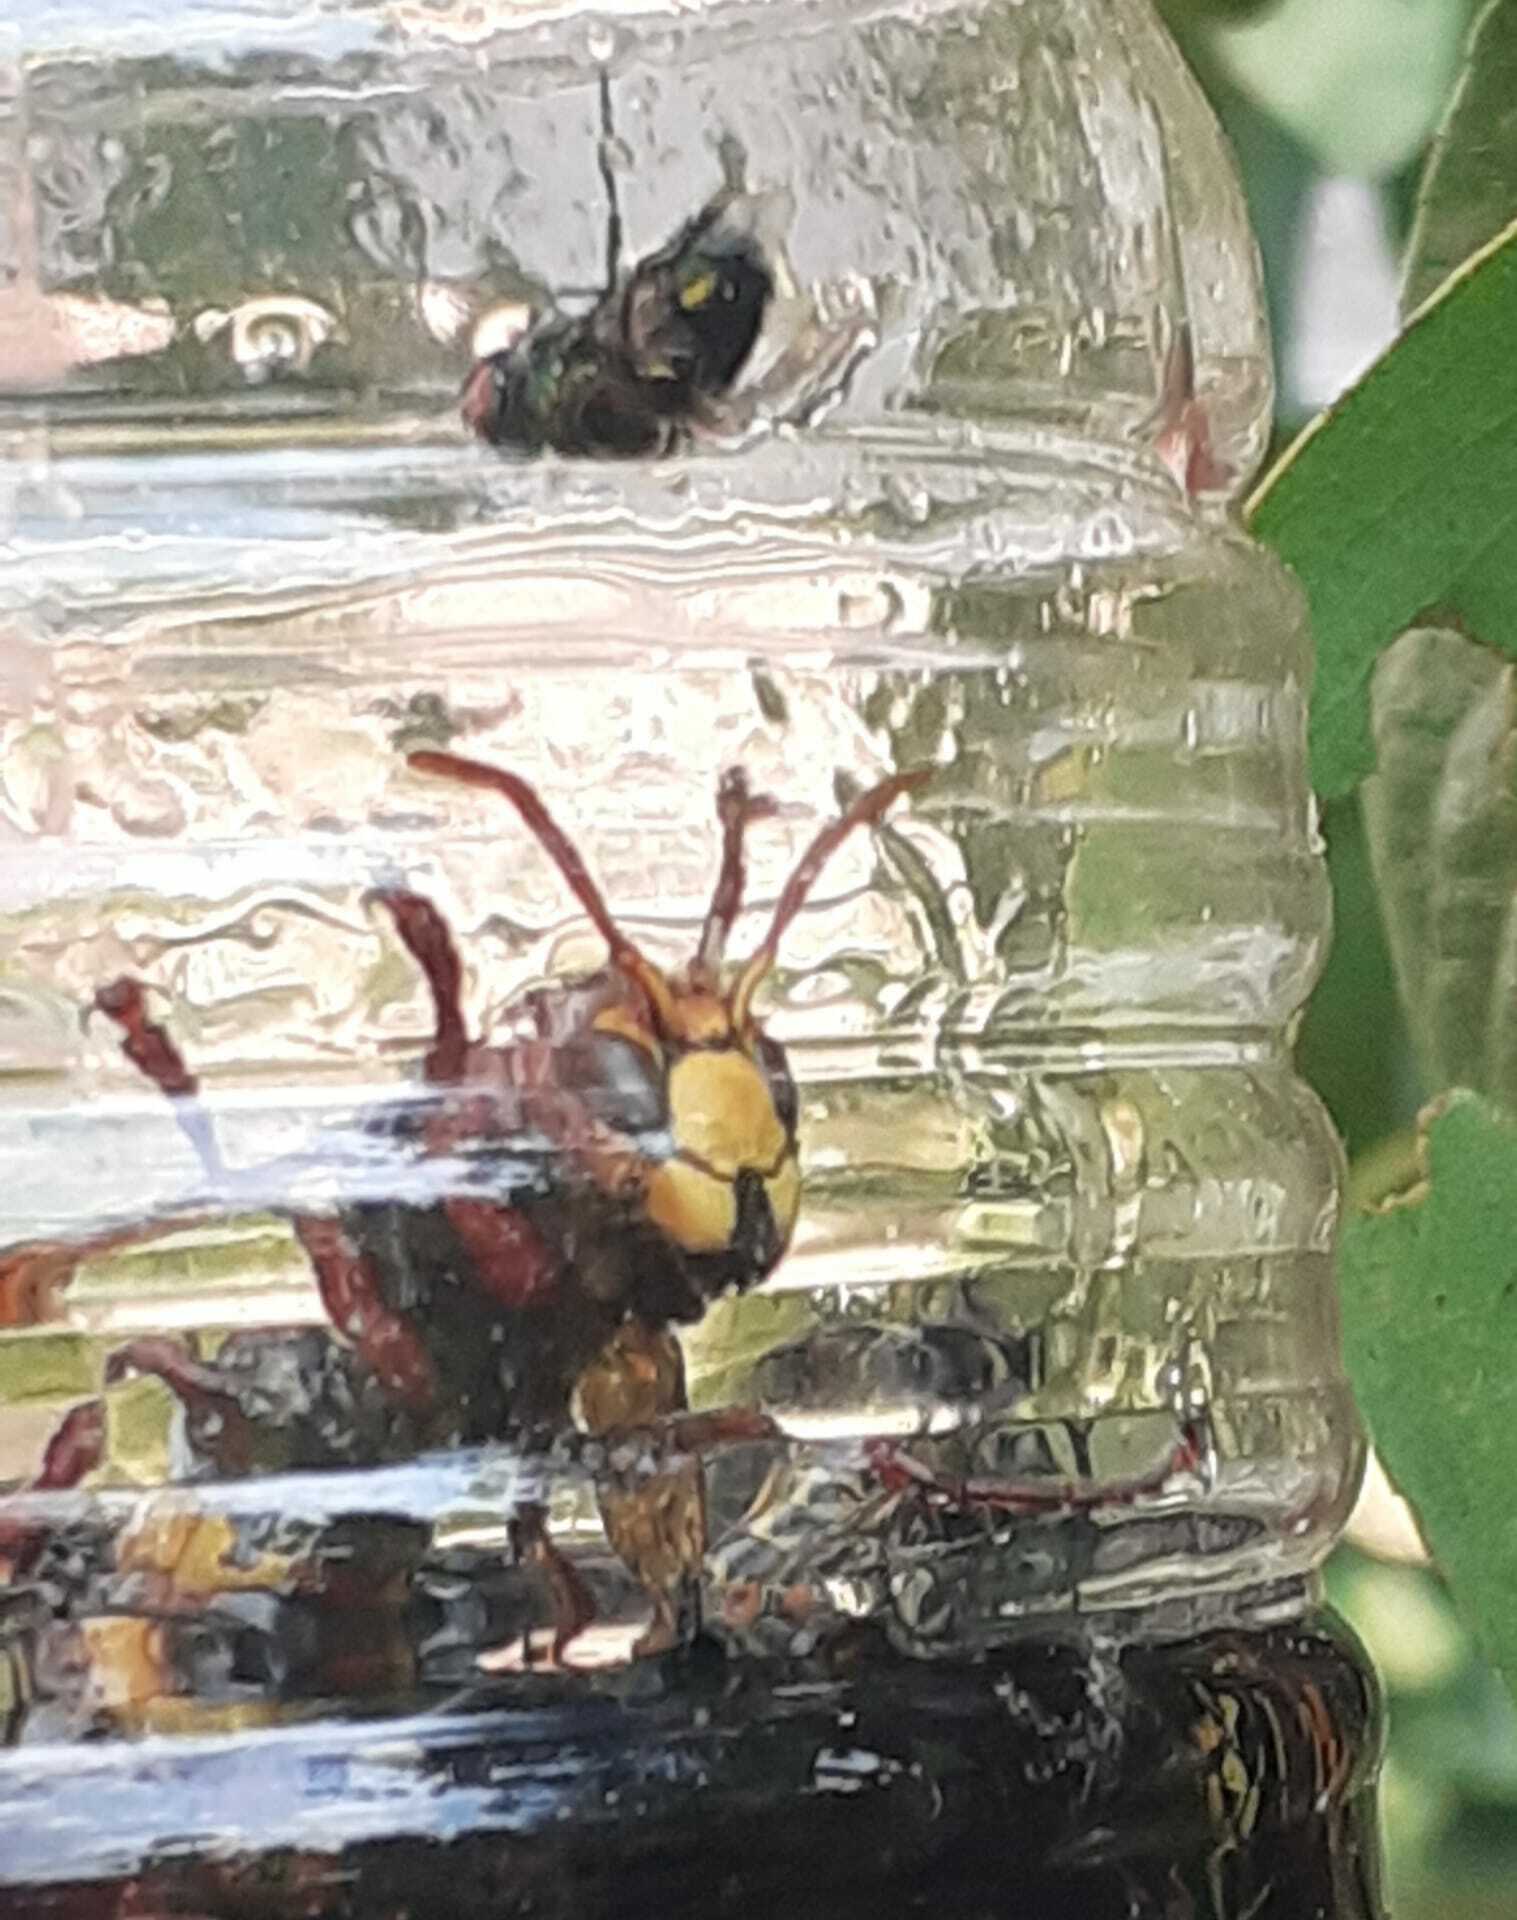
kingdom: Animalia
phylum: Arthropoda
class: Insecta
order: Hymenoptera
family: Vespidae
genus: Vespa
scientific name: Vespa crabro
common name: Hornet
